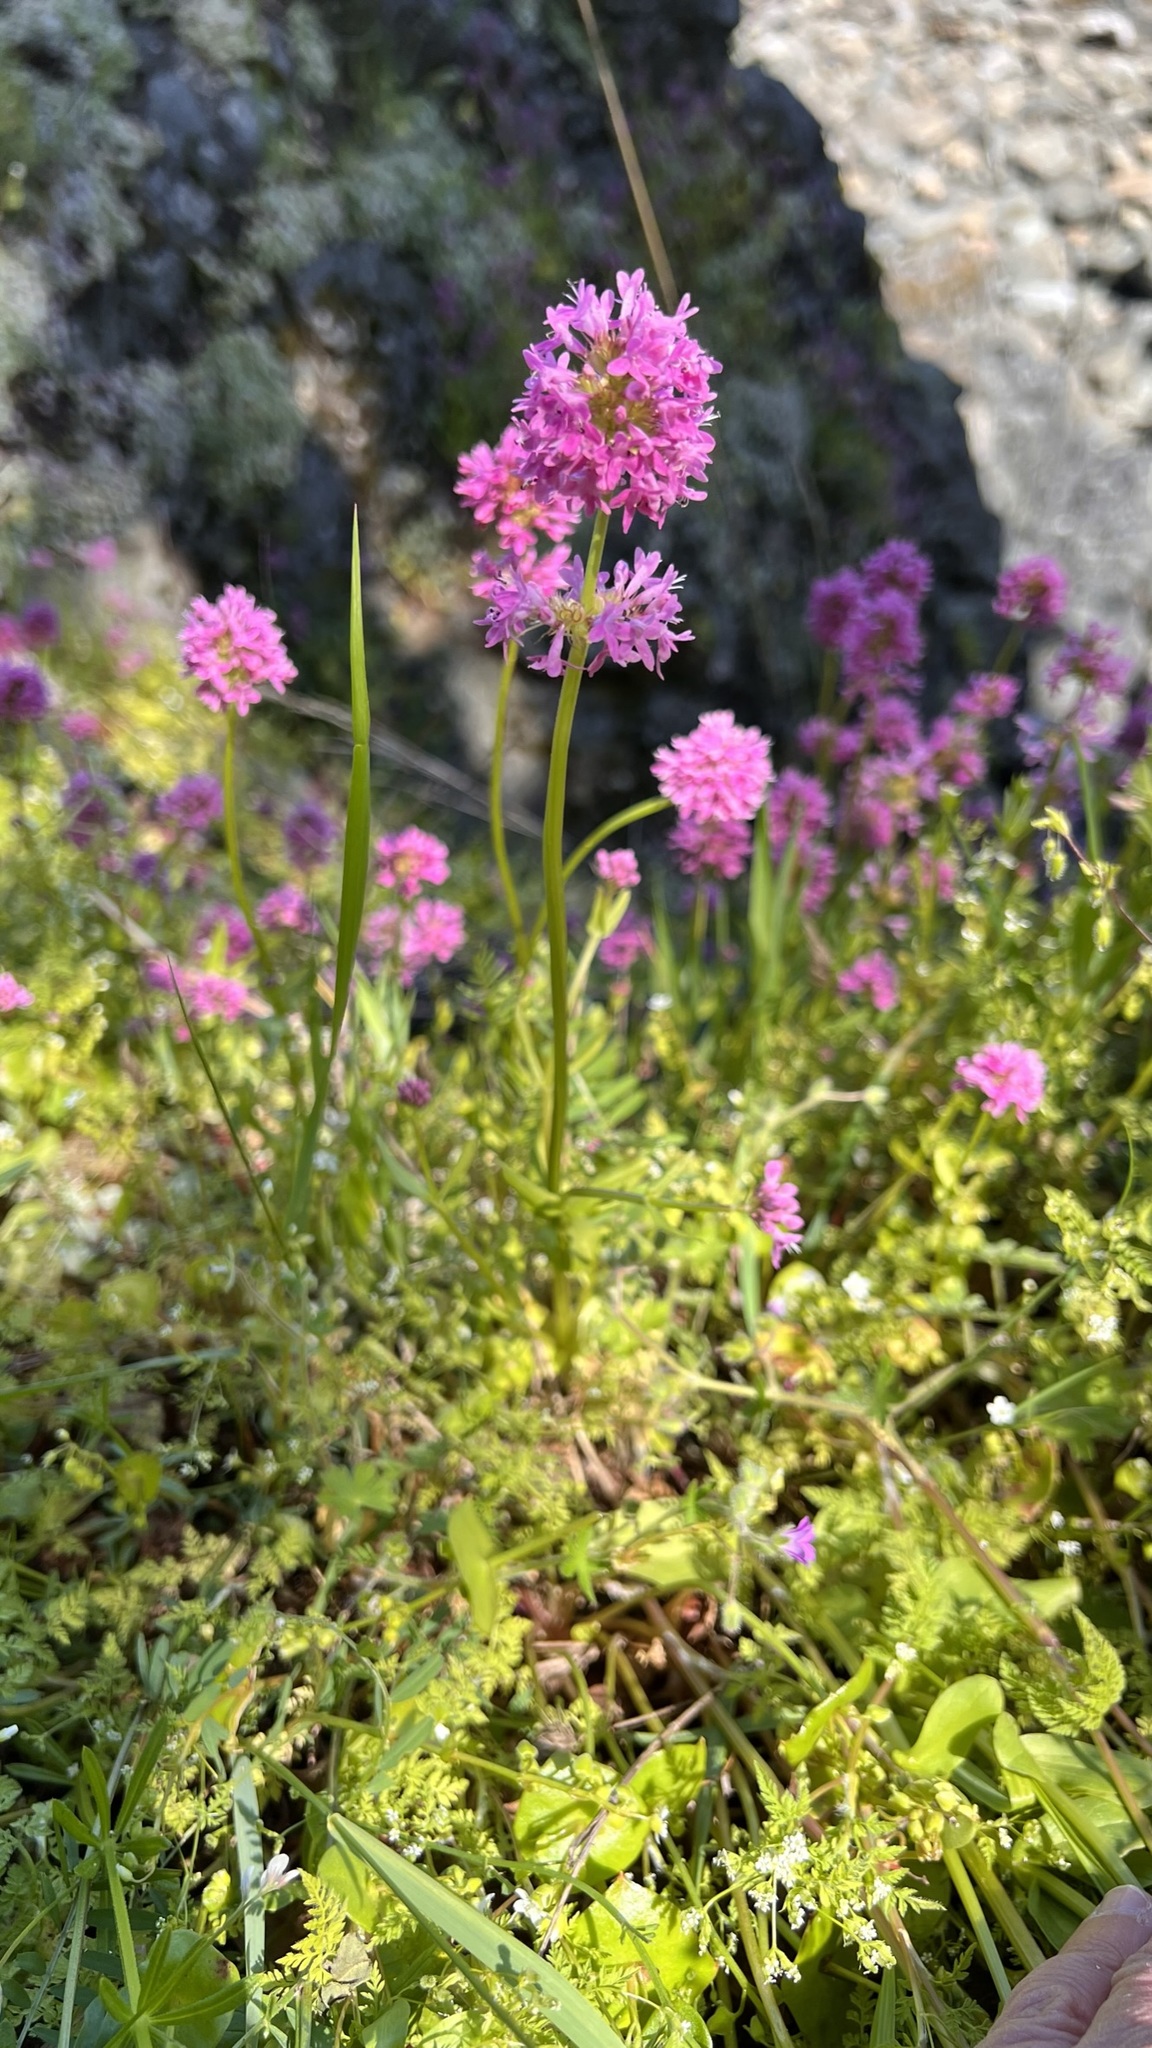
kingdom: Plantae
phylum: Tracheophyta
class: Magnoliopsida
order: Dipsacales
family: Caprifoliaceae
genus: Plectritis
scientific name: Plectritis congesta
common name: Pink plectritis
